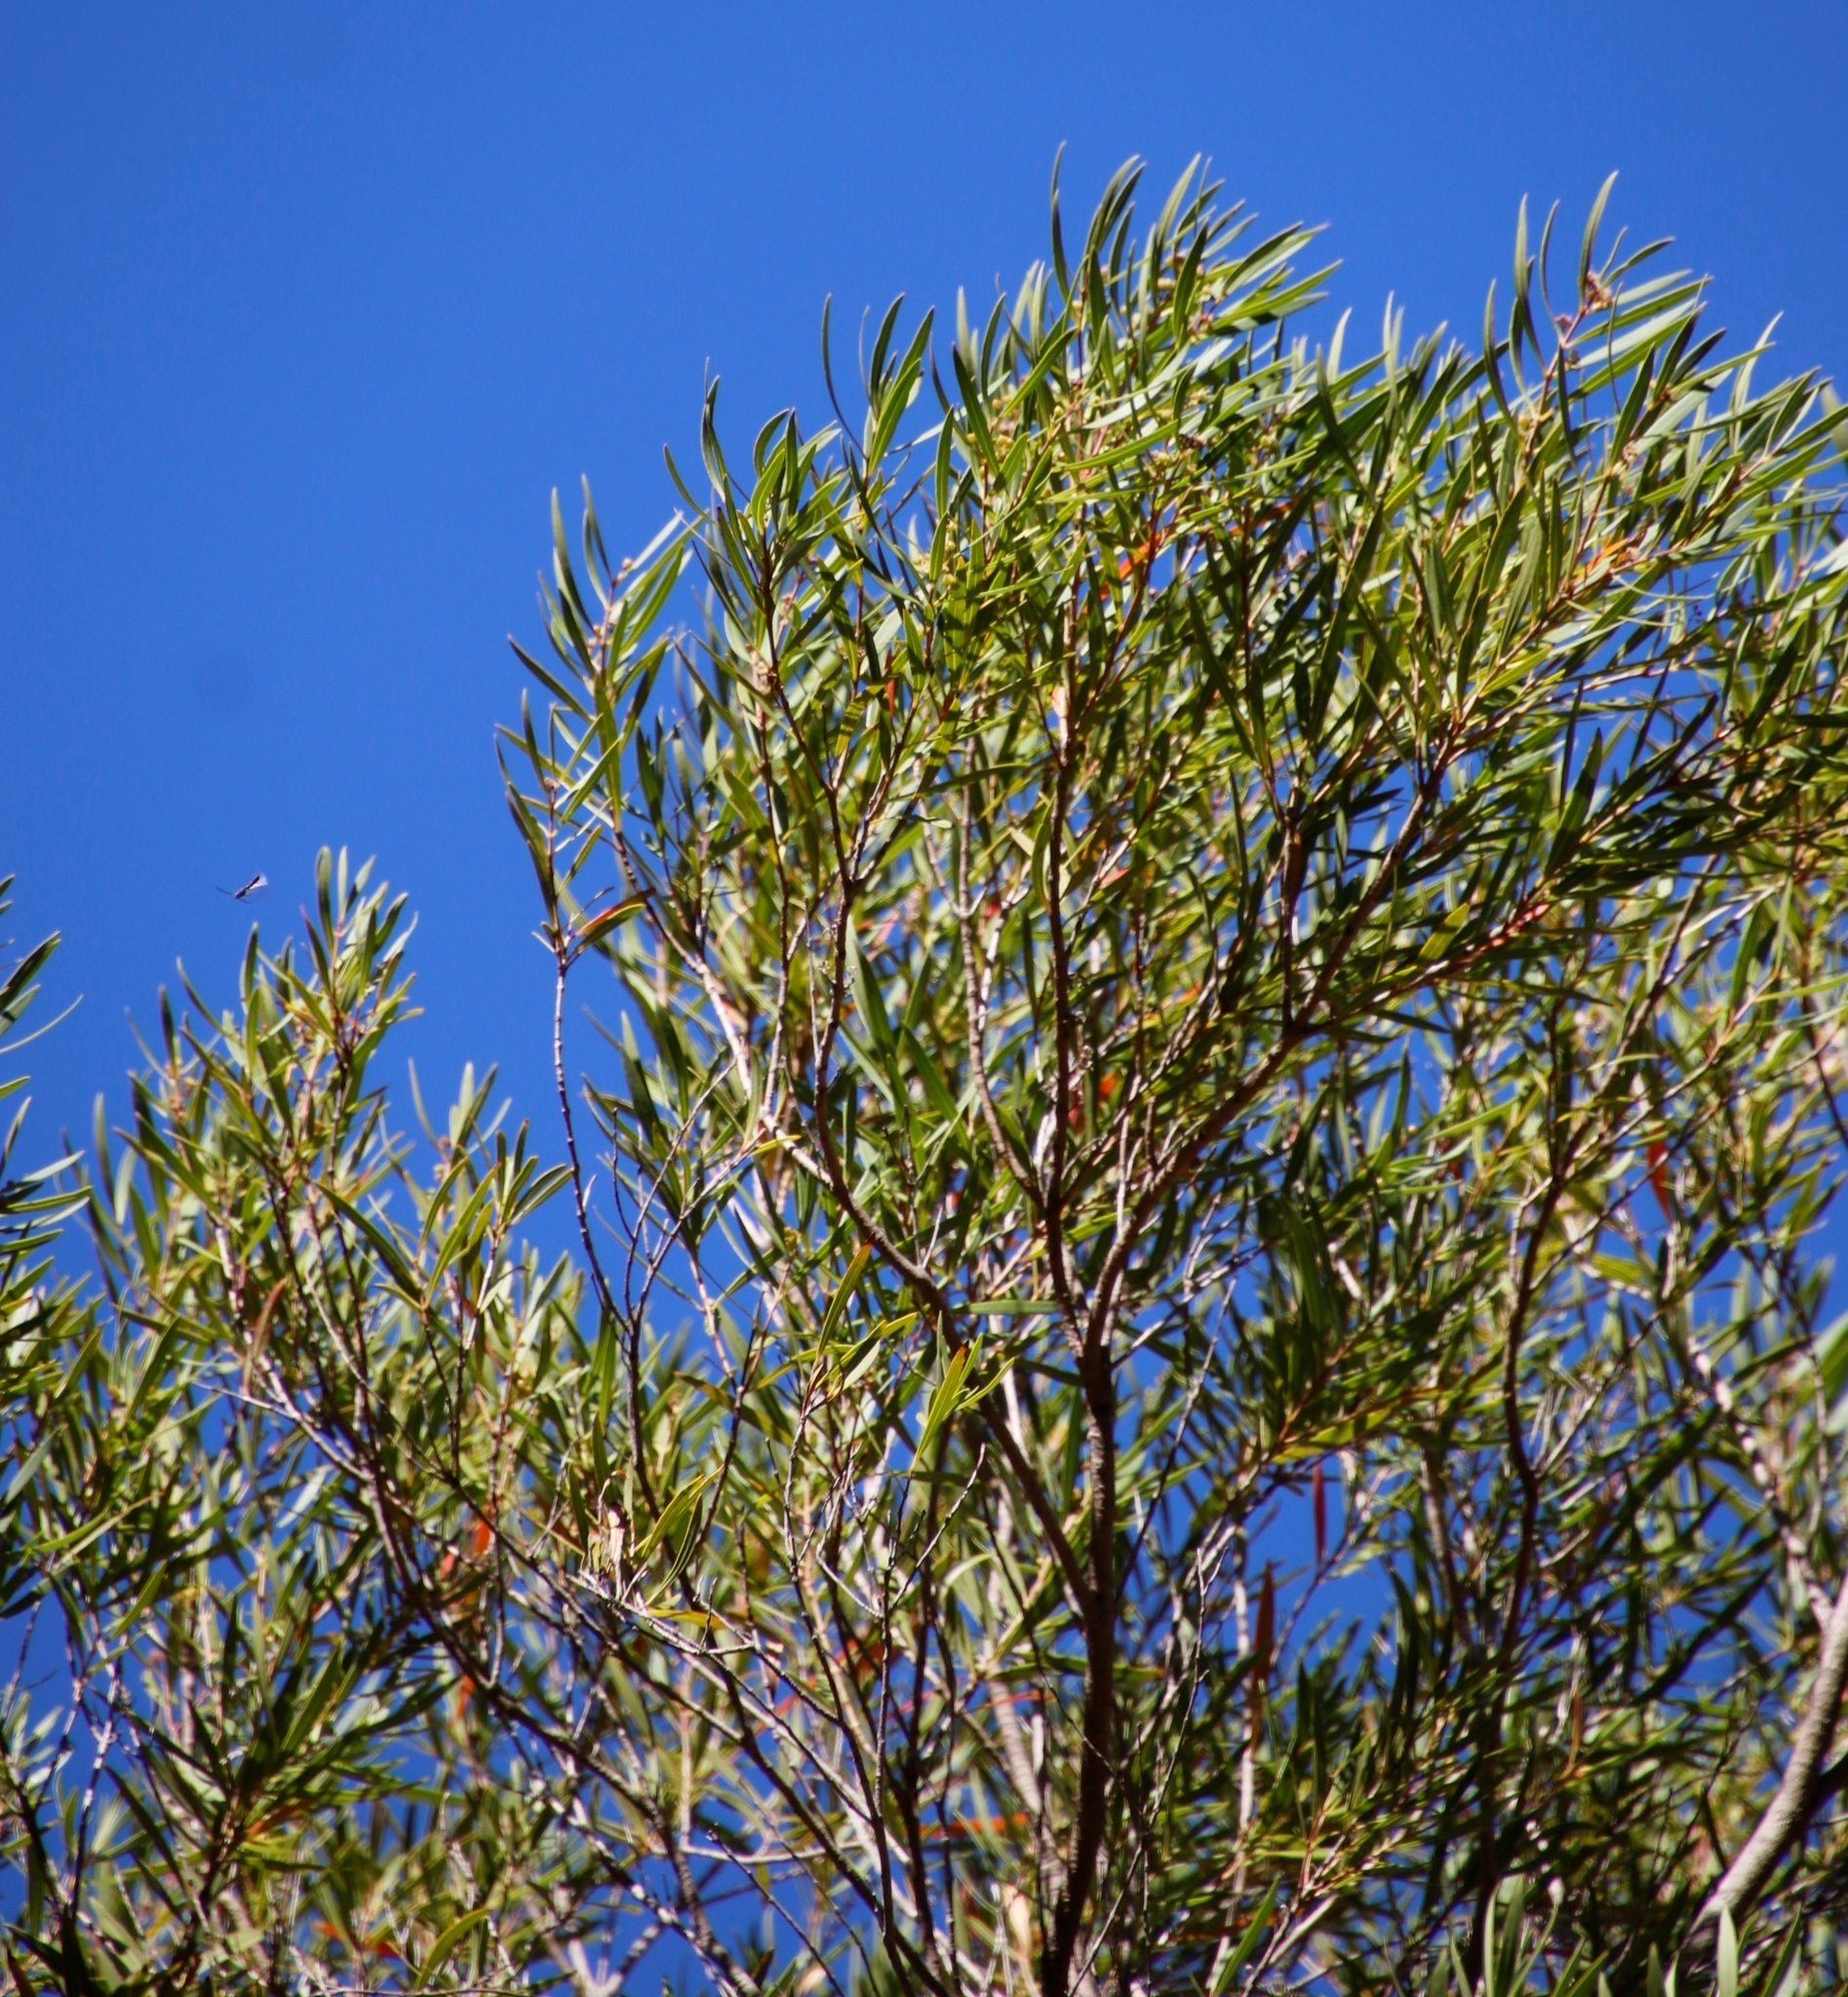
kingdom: Plantae
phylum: Tracheophyta
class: Magnoliopsida
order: Myrtales
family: Myrtaceae
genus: Callistemon
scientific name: Callistemon lanceolatus
